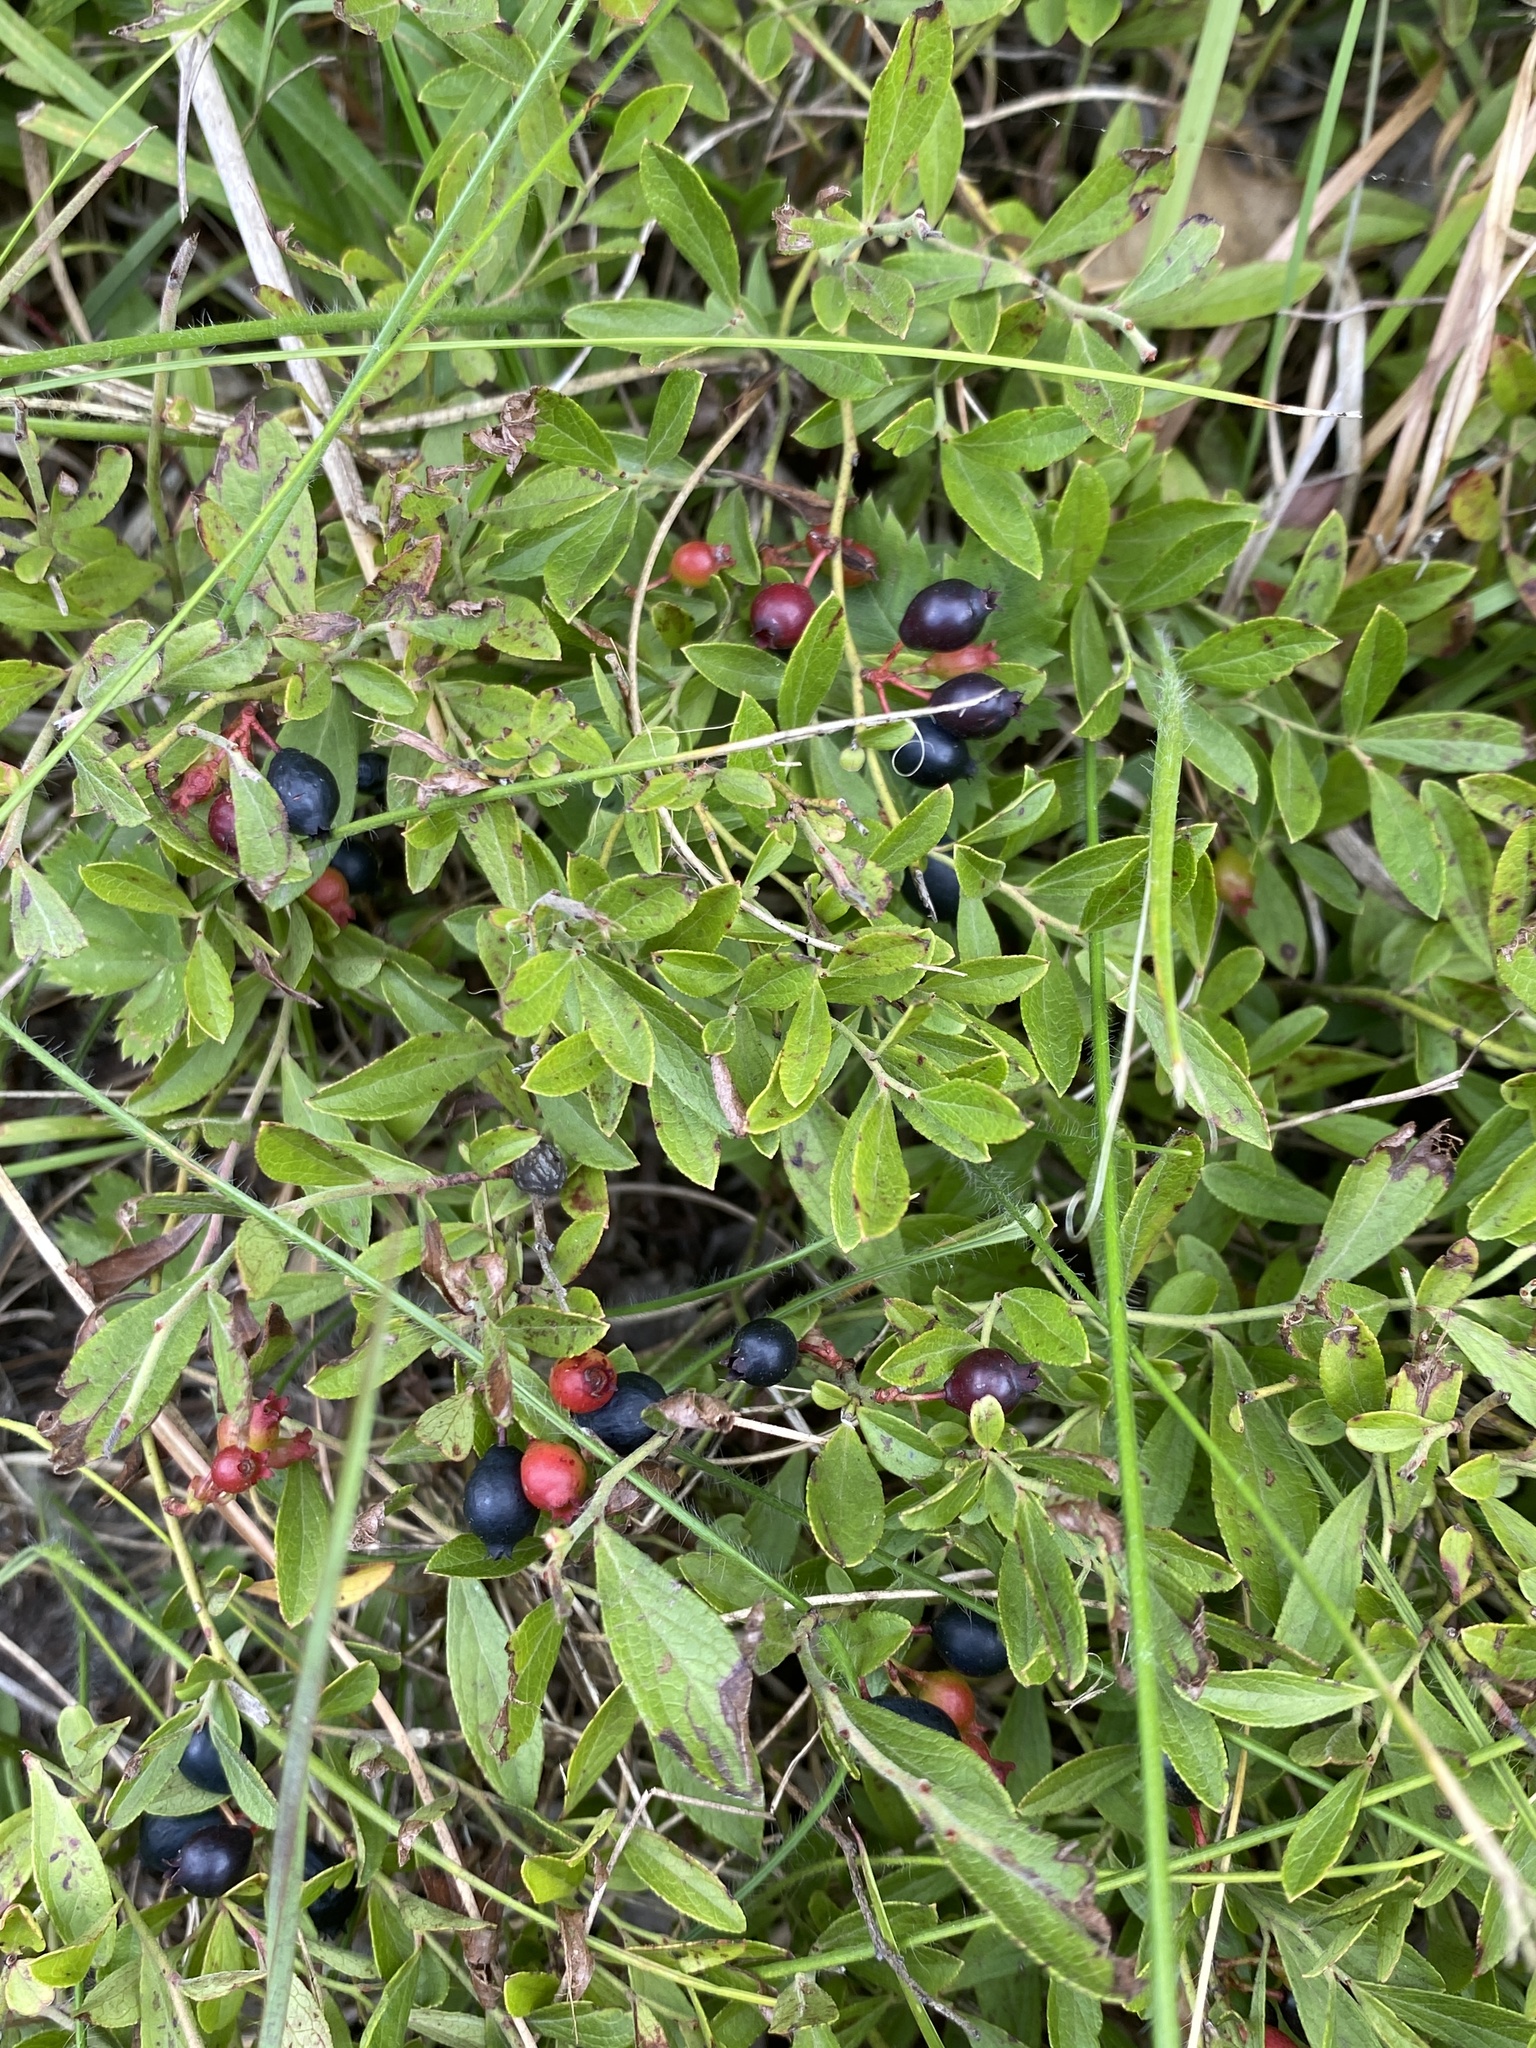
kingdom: Plantae
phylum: Tracheophyta
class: Magnoliopsida
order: Ericales
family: Ericaceae
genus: Vaccinium
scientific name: Vaccinium tenellum
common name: Southern blueberry
